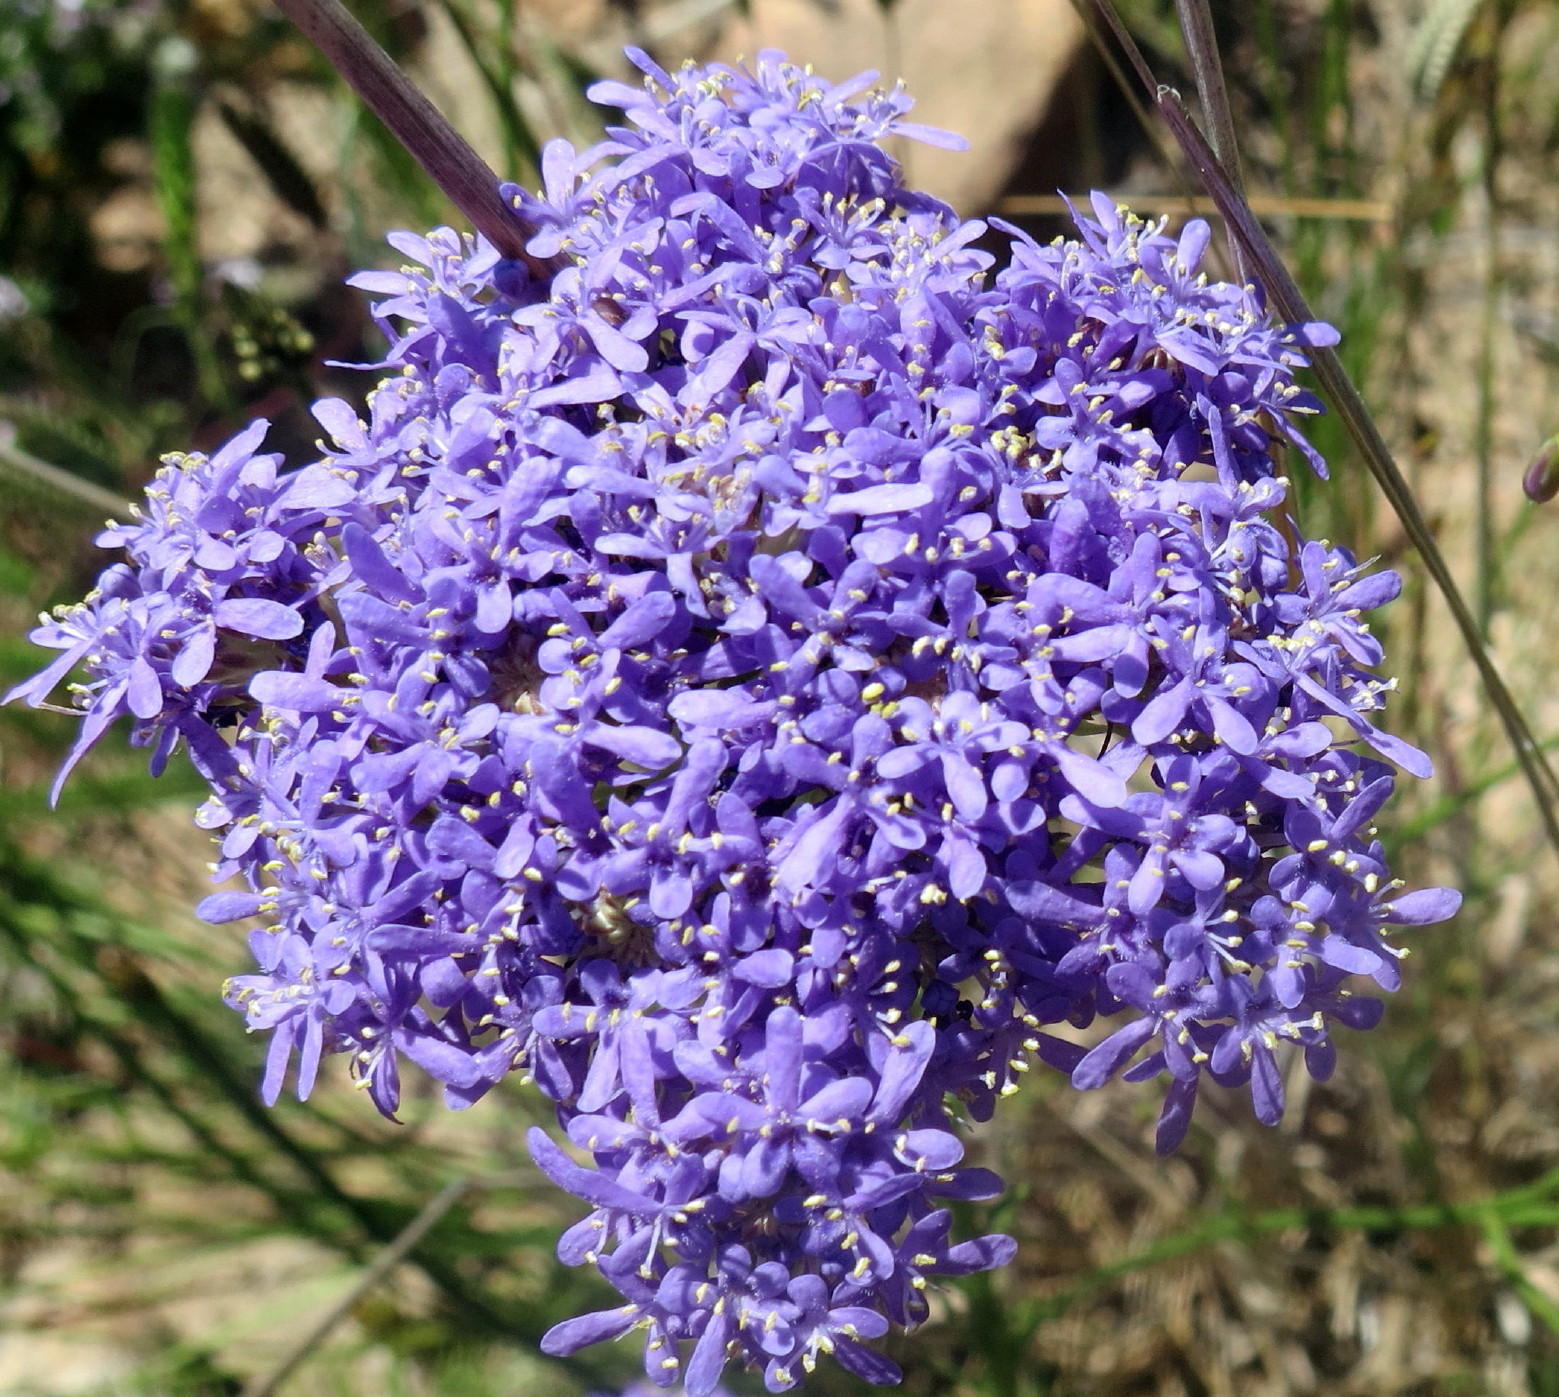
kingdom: Plantae
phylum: Tracheophyta
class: Magnoliopsida
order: Lamiales
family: Scrophulariaceae
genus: Pseudoselago
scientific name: Pseudoselago spuria
